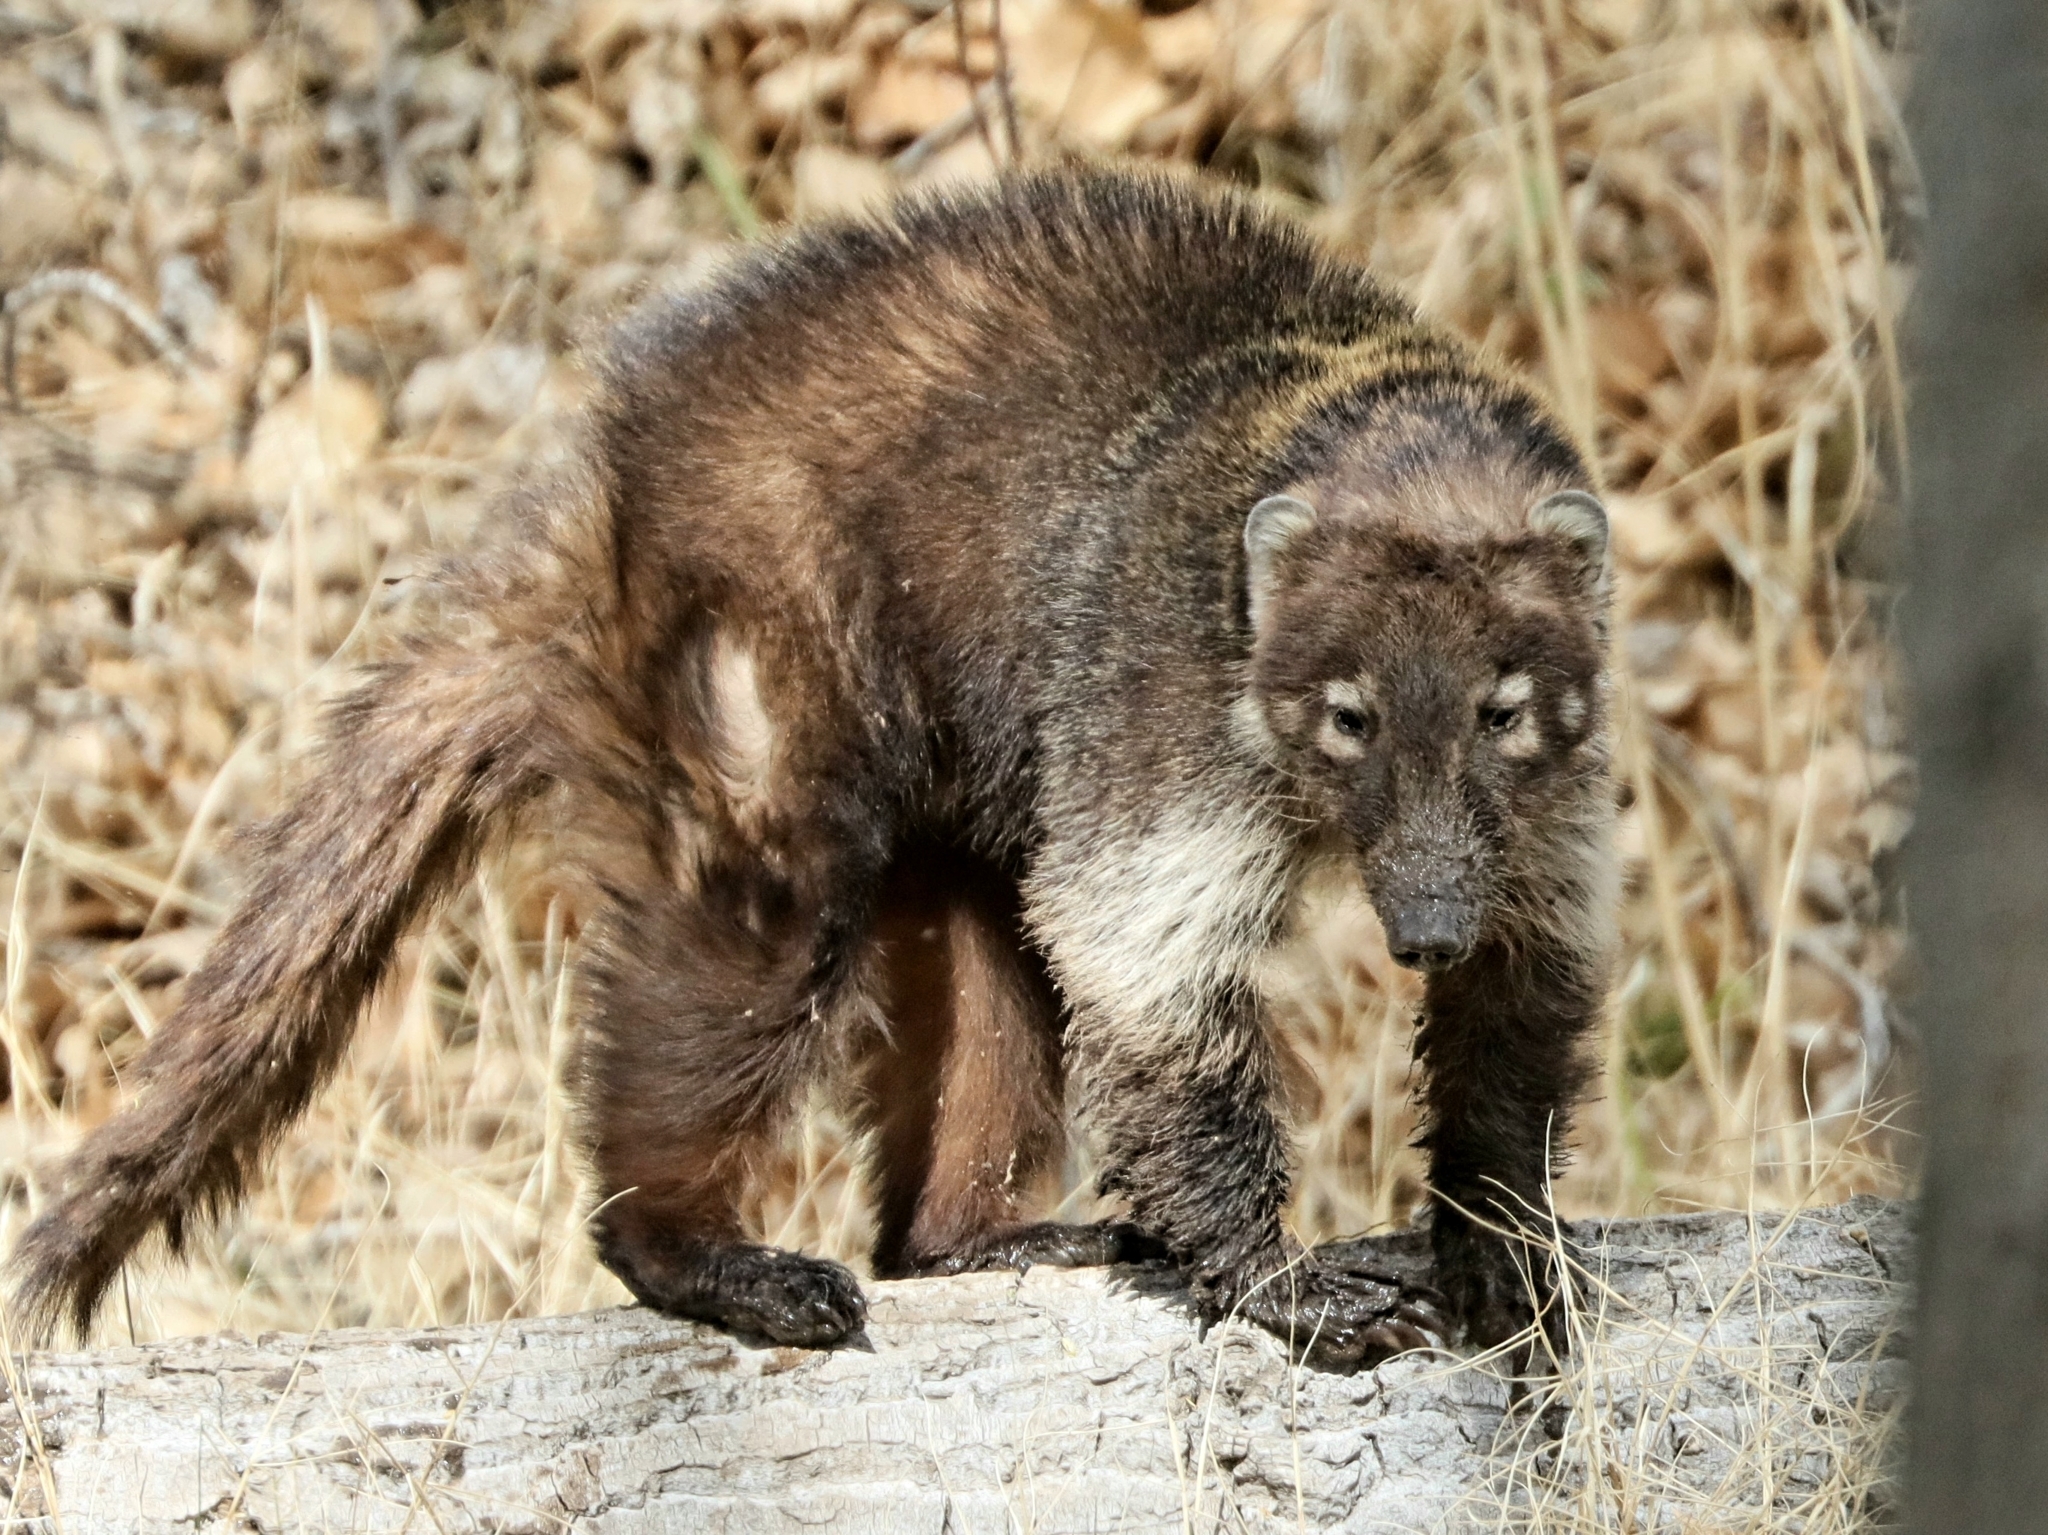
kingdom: Animalia
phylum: Chordata
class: Mammalia
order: Carnivora
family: Procyonidae
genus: Nasua
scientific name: Nasua narica
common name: White-nosed coati
